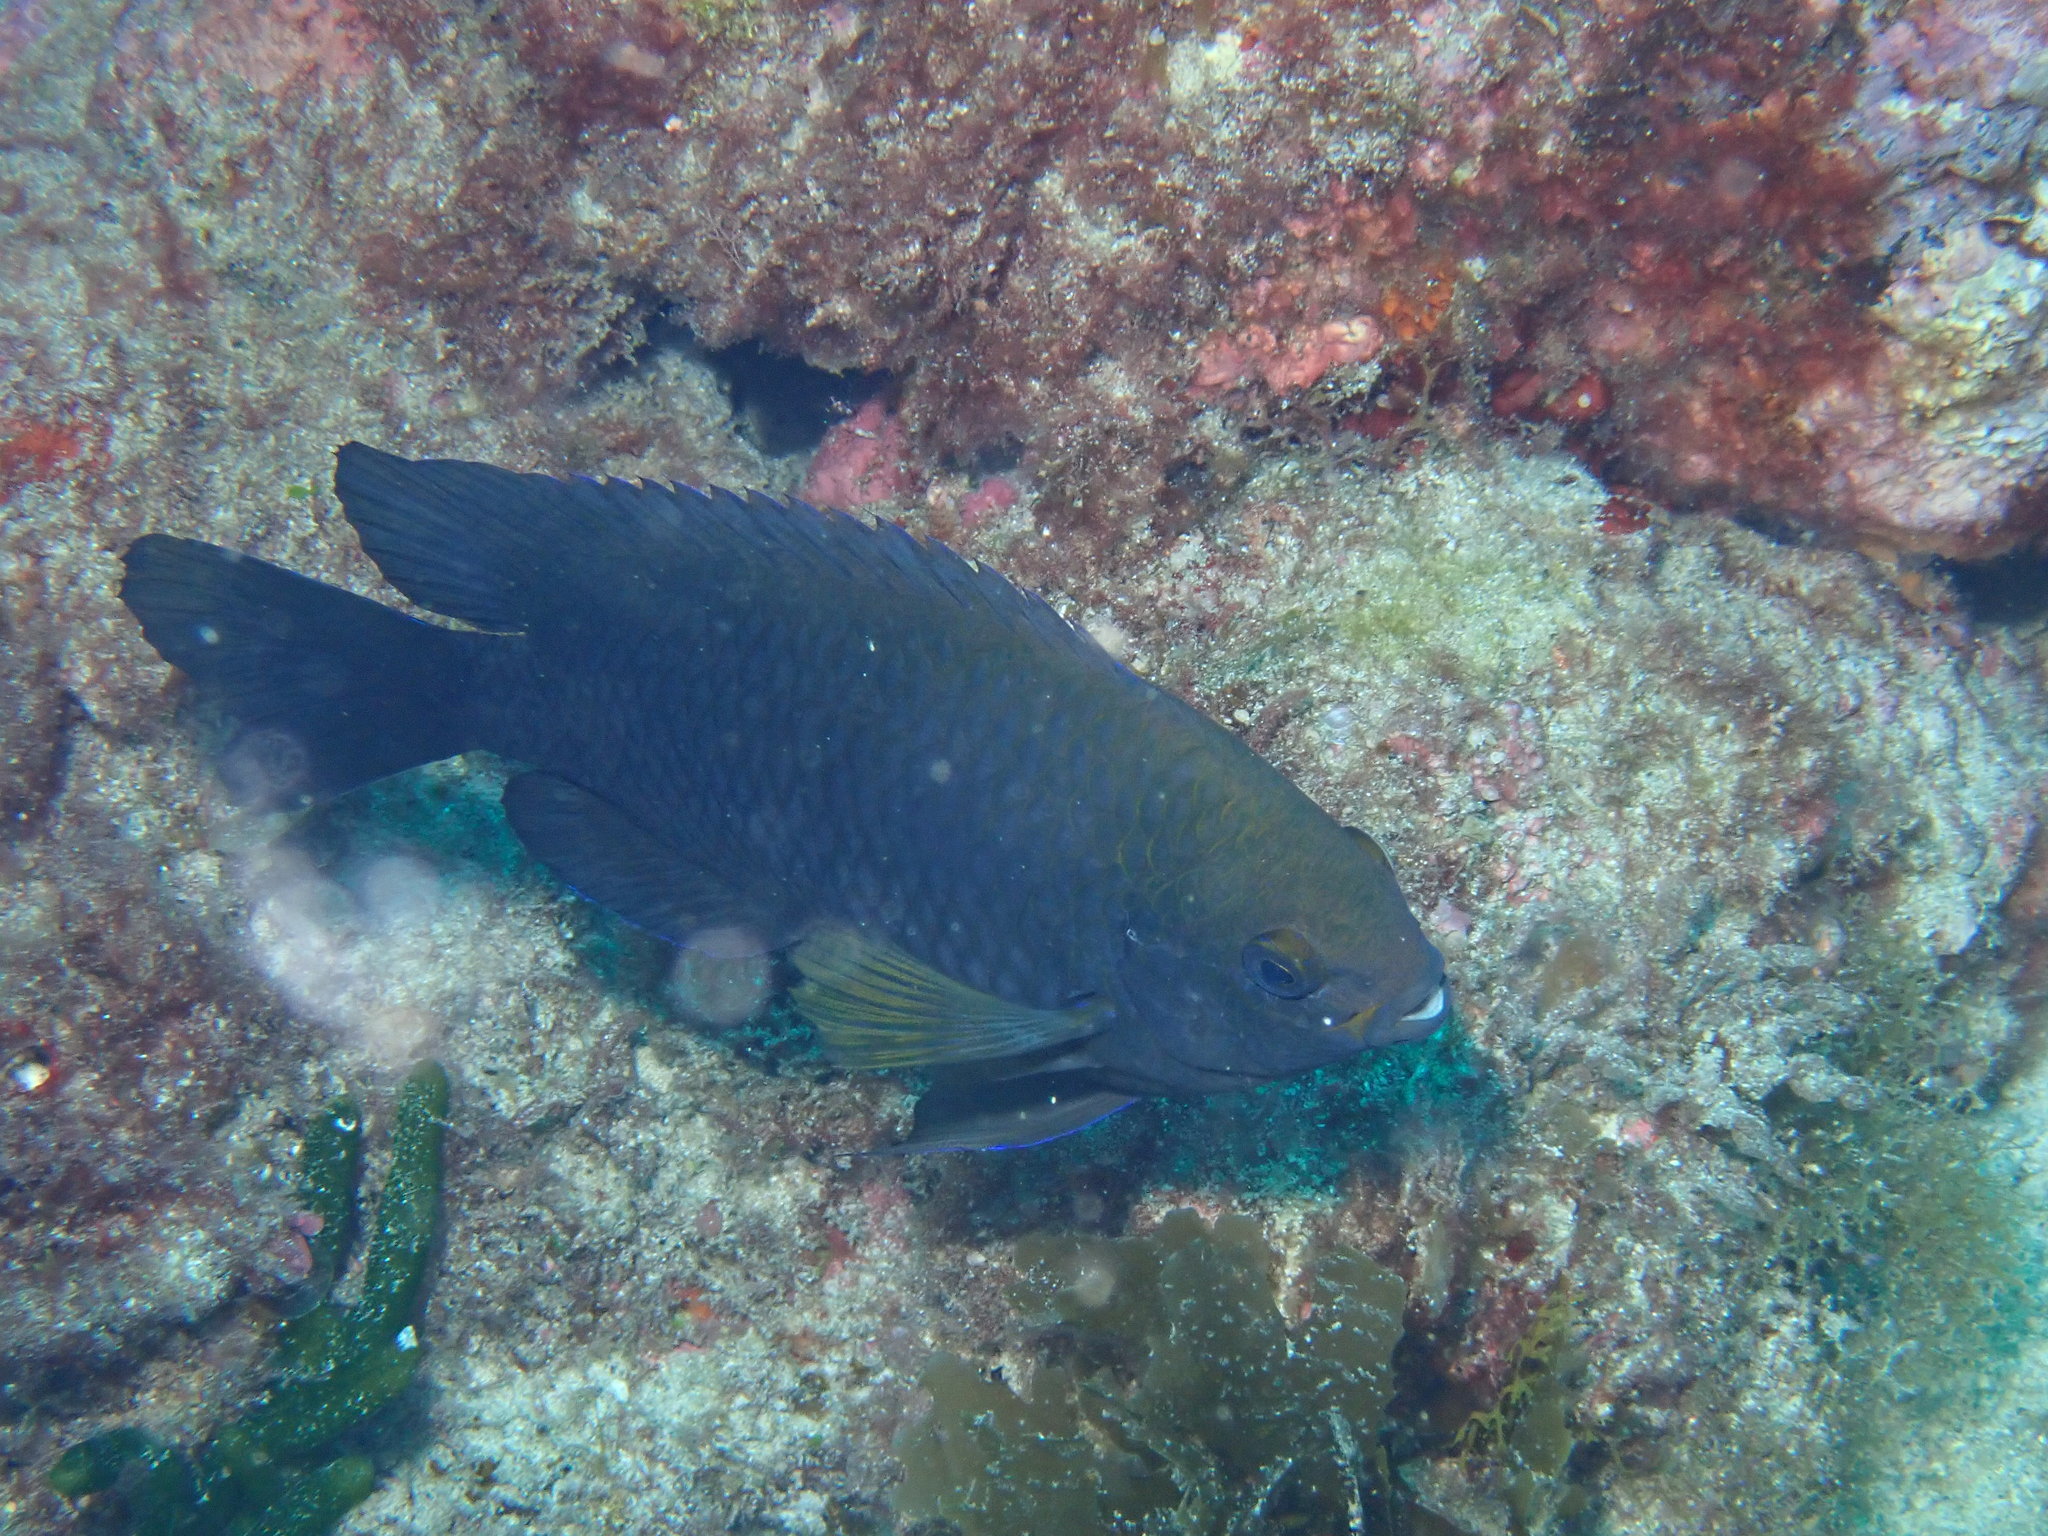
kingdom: Animalia
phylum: Chordata
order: Perciformes
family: Pomacentridae
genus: Stegastes
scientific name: Stegastes fasciolatus
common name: Pacific gregory
